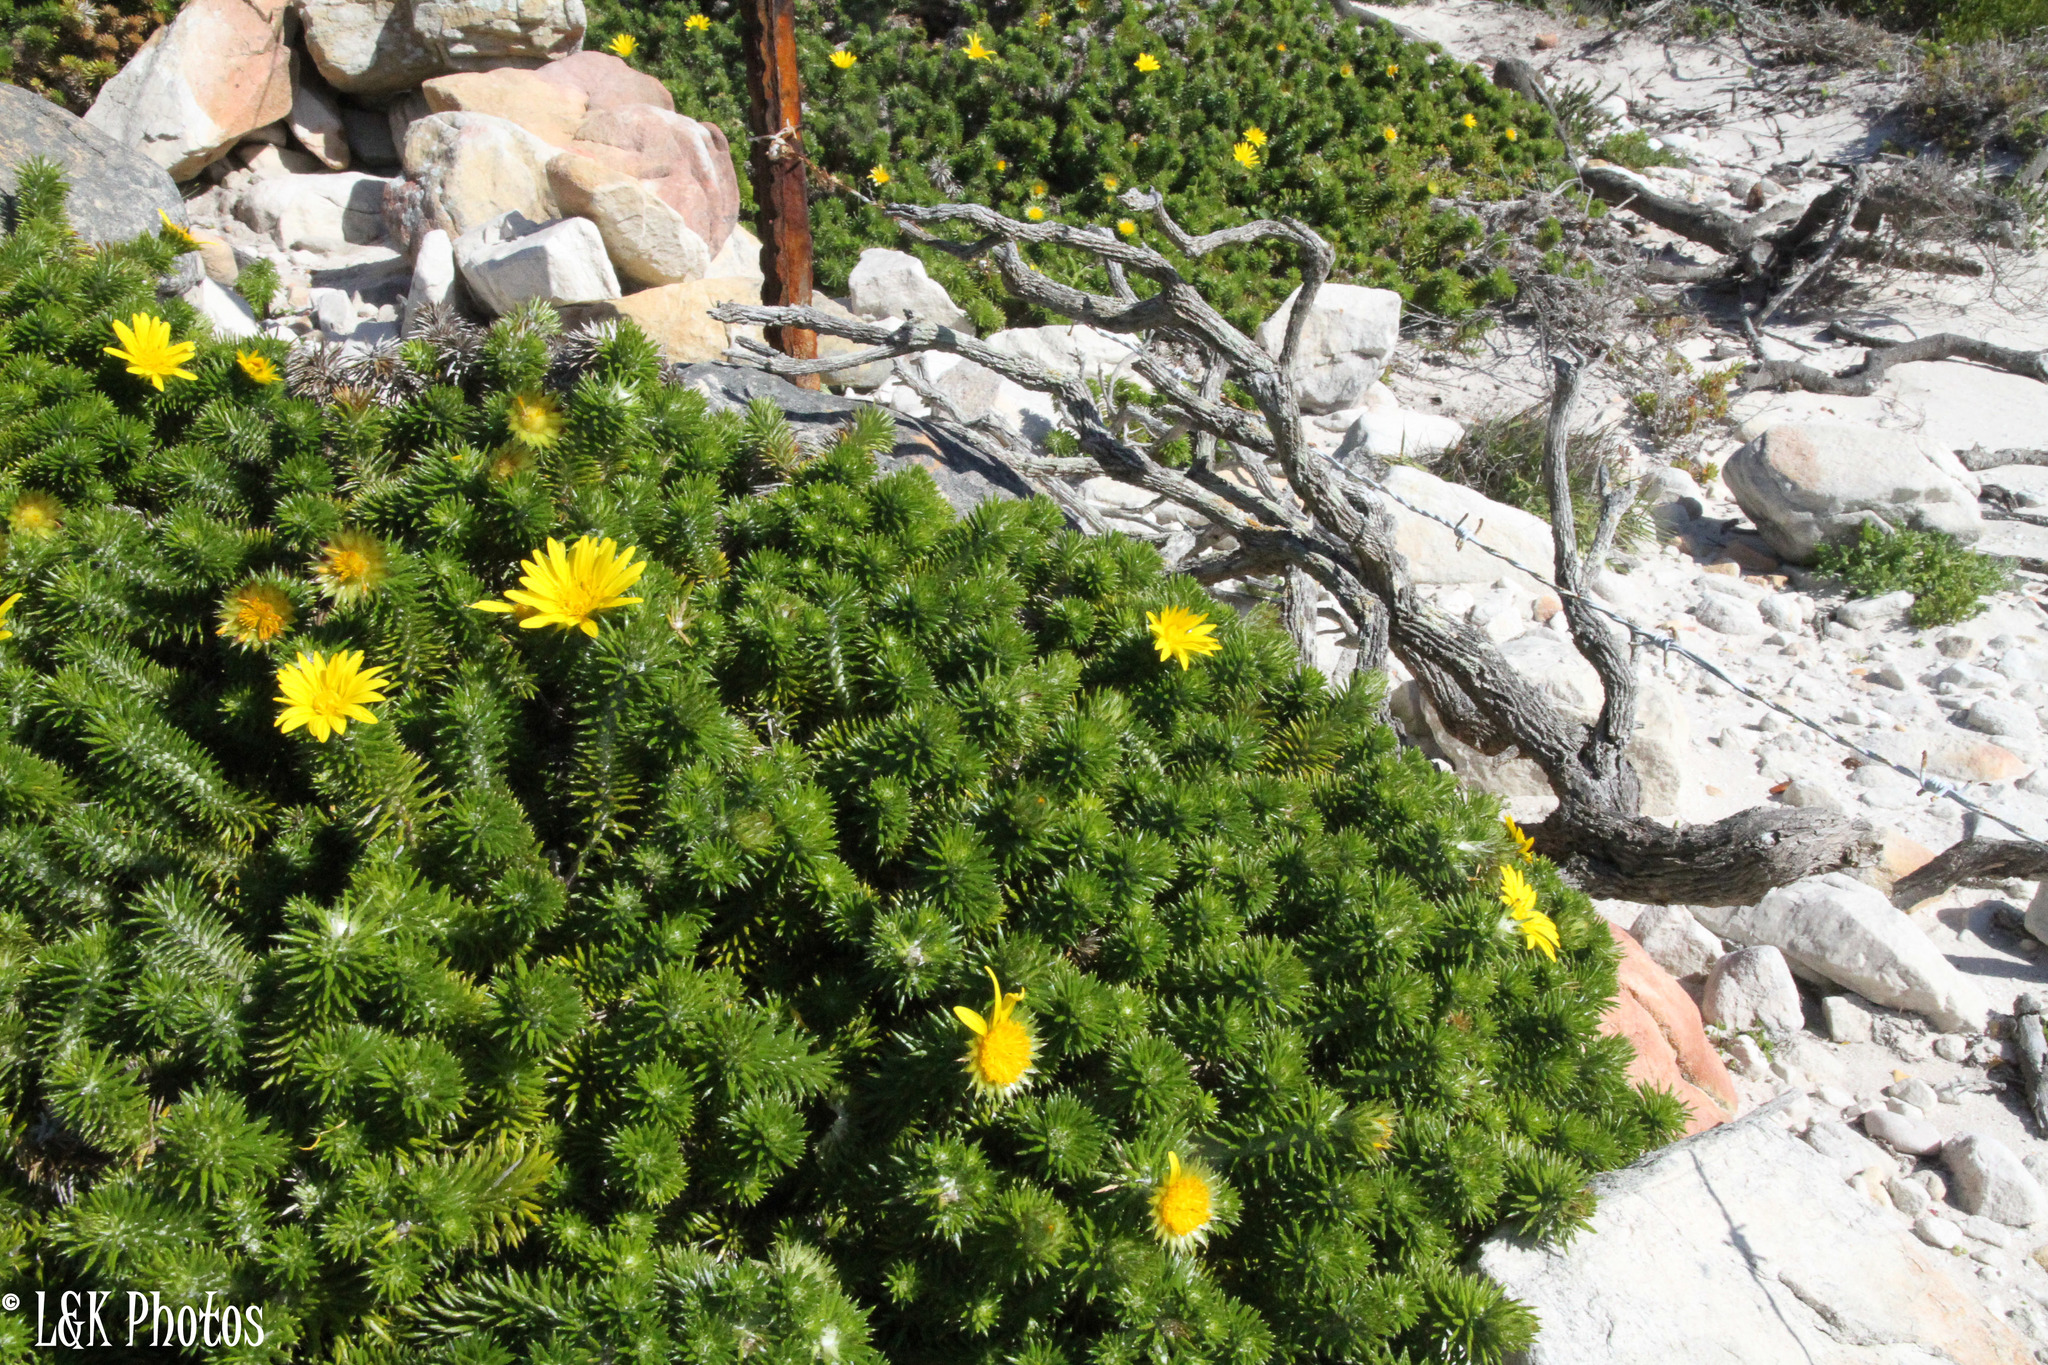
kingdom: Plantae
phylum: Tracheophyta
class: Magnoliopsida
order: Asterales
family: Asteraceae
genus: Cullumia
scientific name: Cullumia squarrosa
